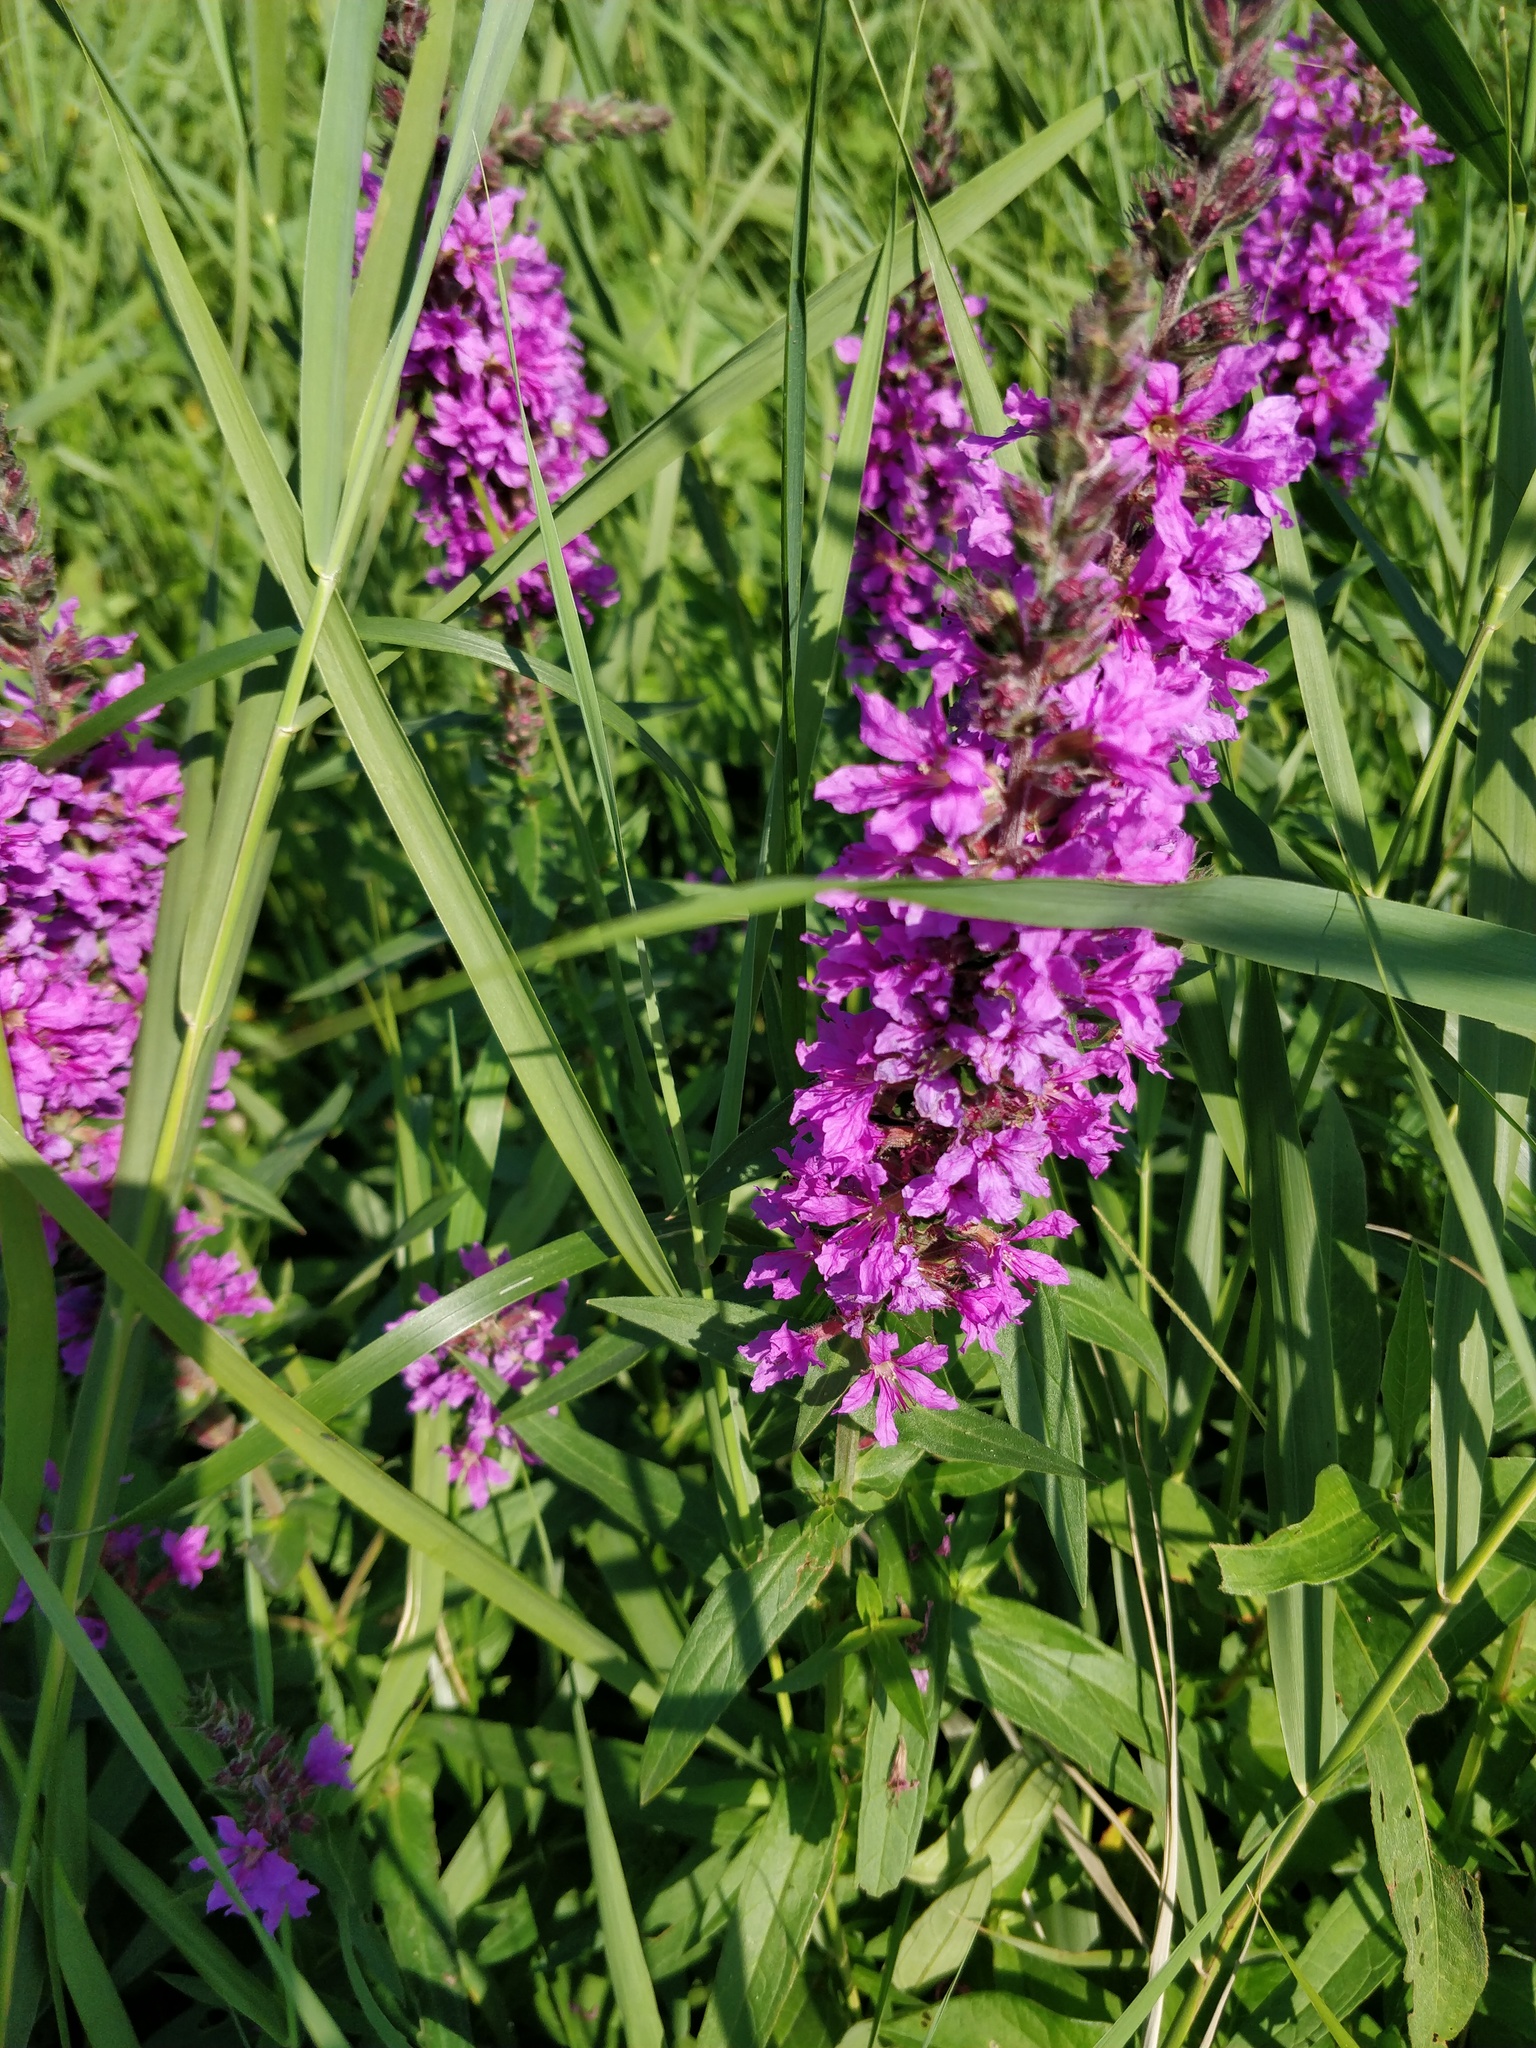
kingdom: Plantae
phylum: Tracheophyta
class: Magnoliopsida
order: Myrtales
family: Lythraceae
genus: Lythrum
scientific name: Lythrum salicaria
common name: Purple loosestrife
